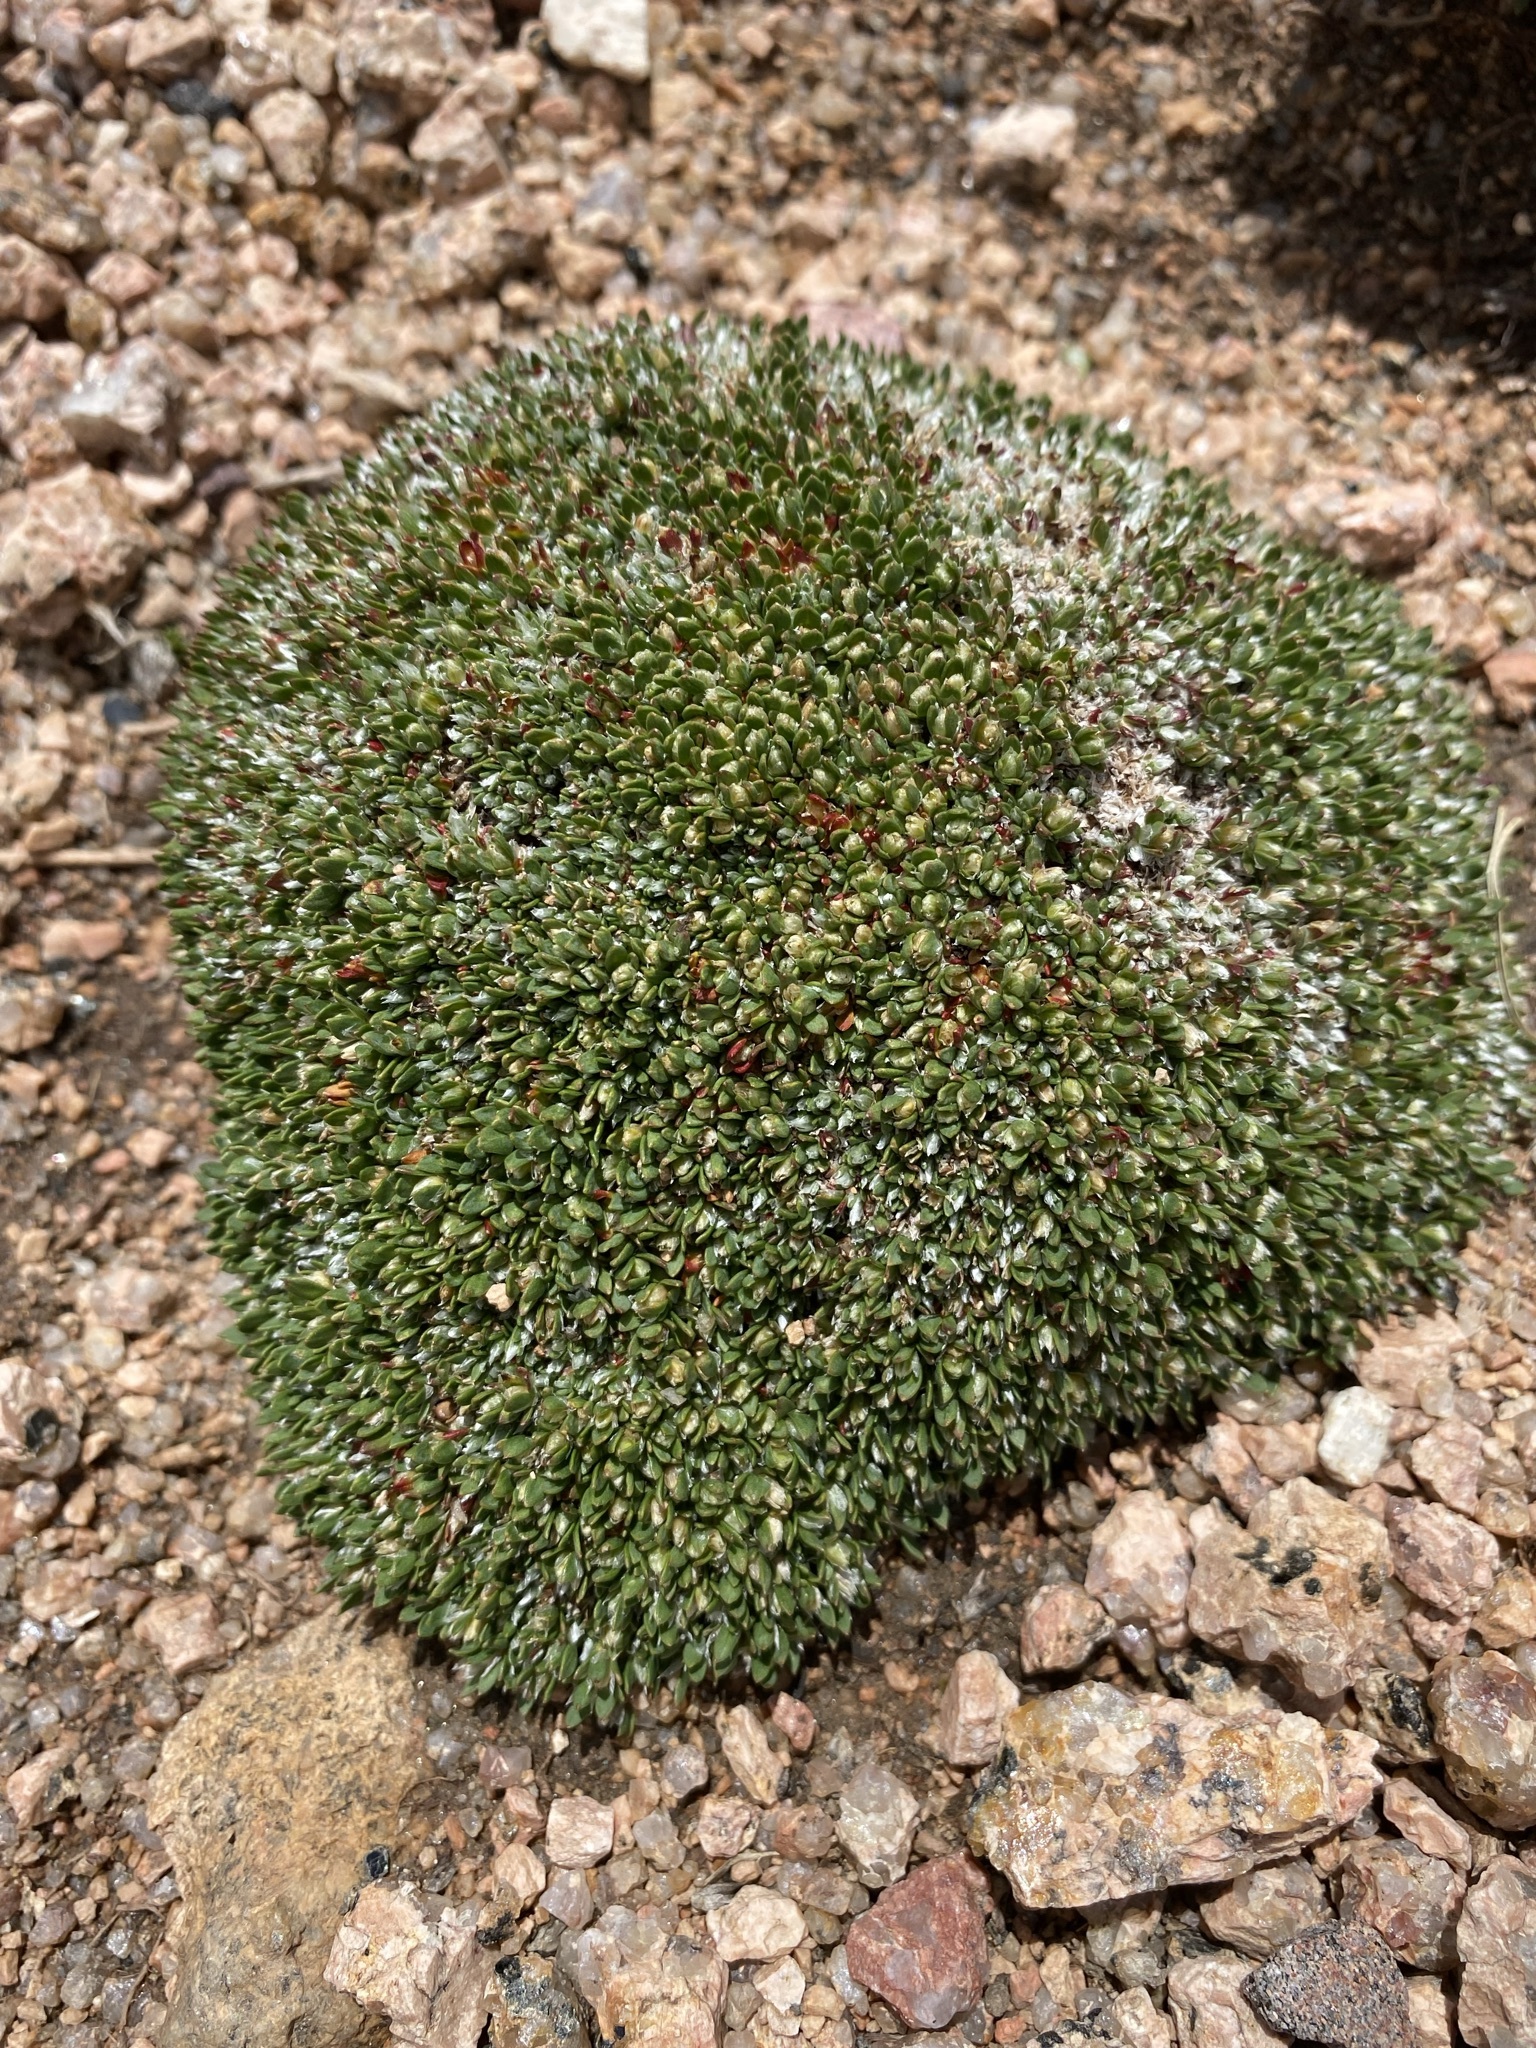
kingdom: Plantae
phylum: Tracheophyta
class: Magnoliopsida
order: Caryophyllales
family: Caryophyllaceae
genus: Paronychia
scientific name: Paronychia pulvinata
